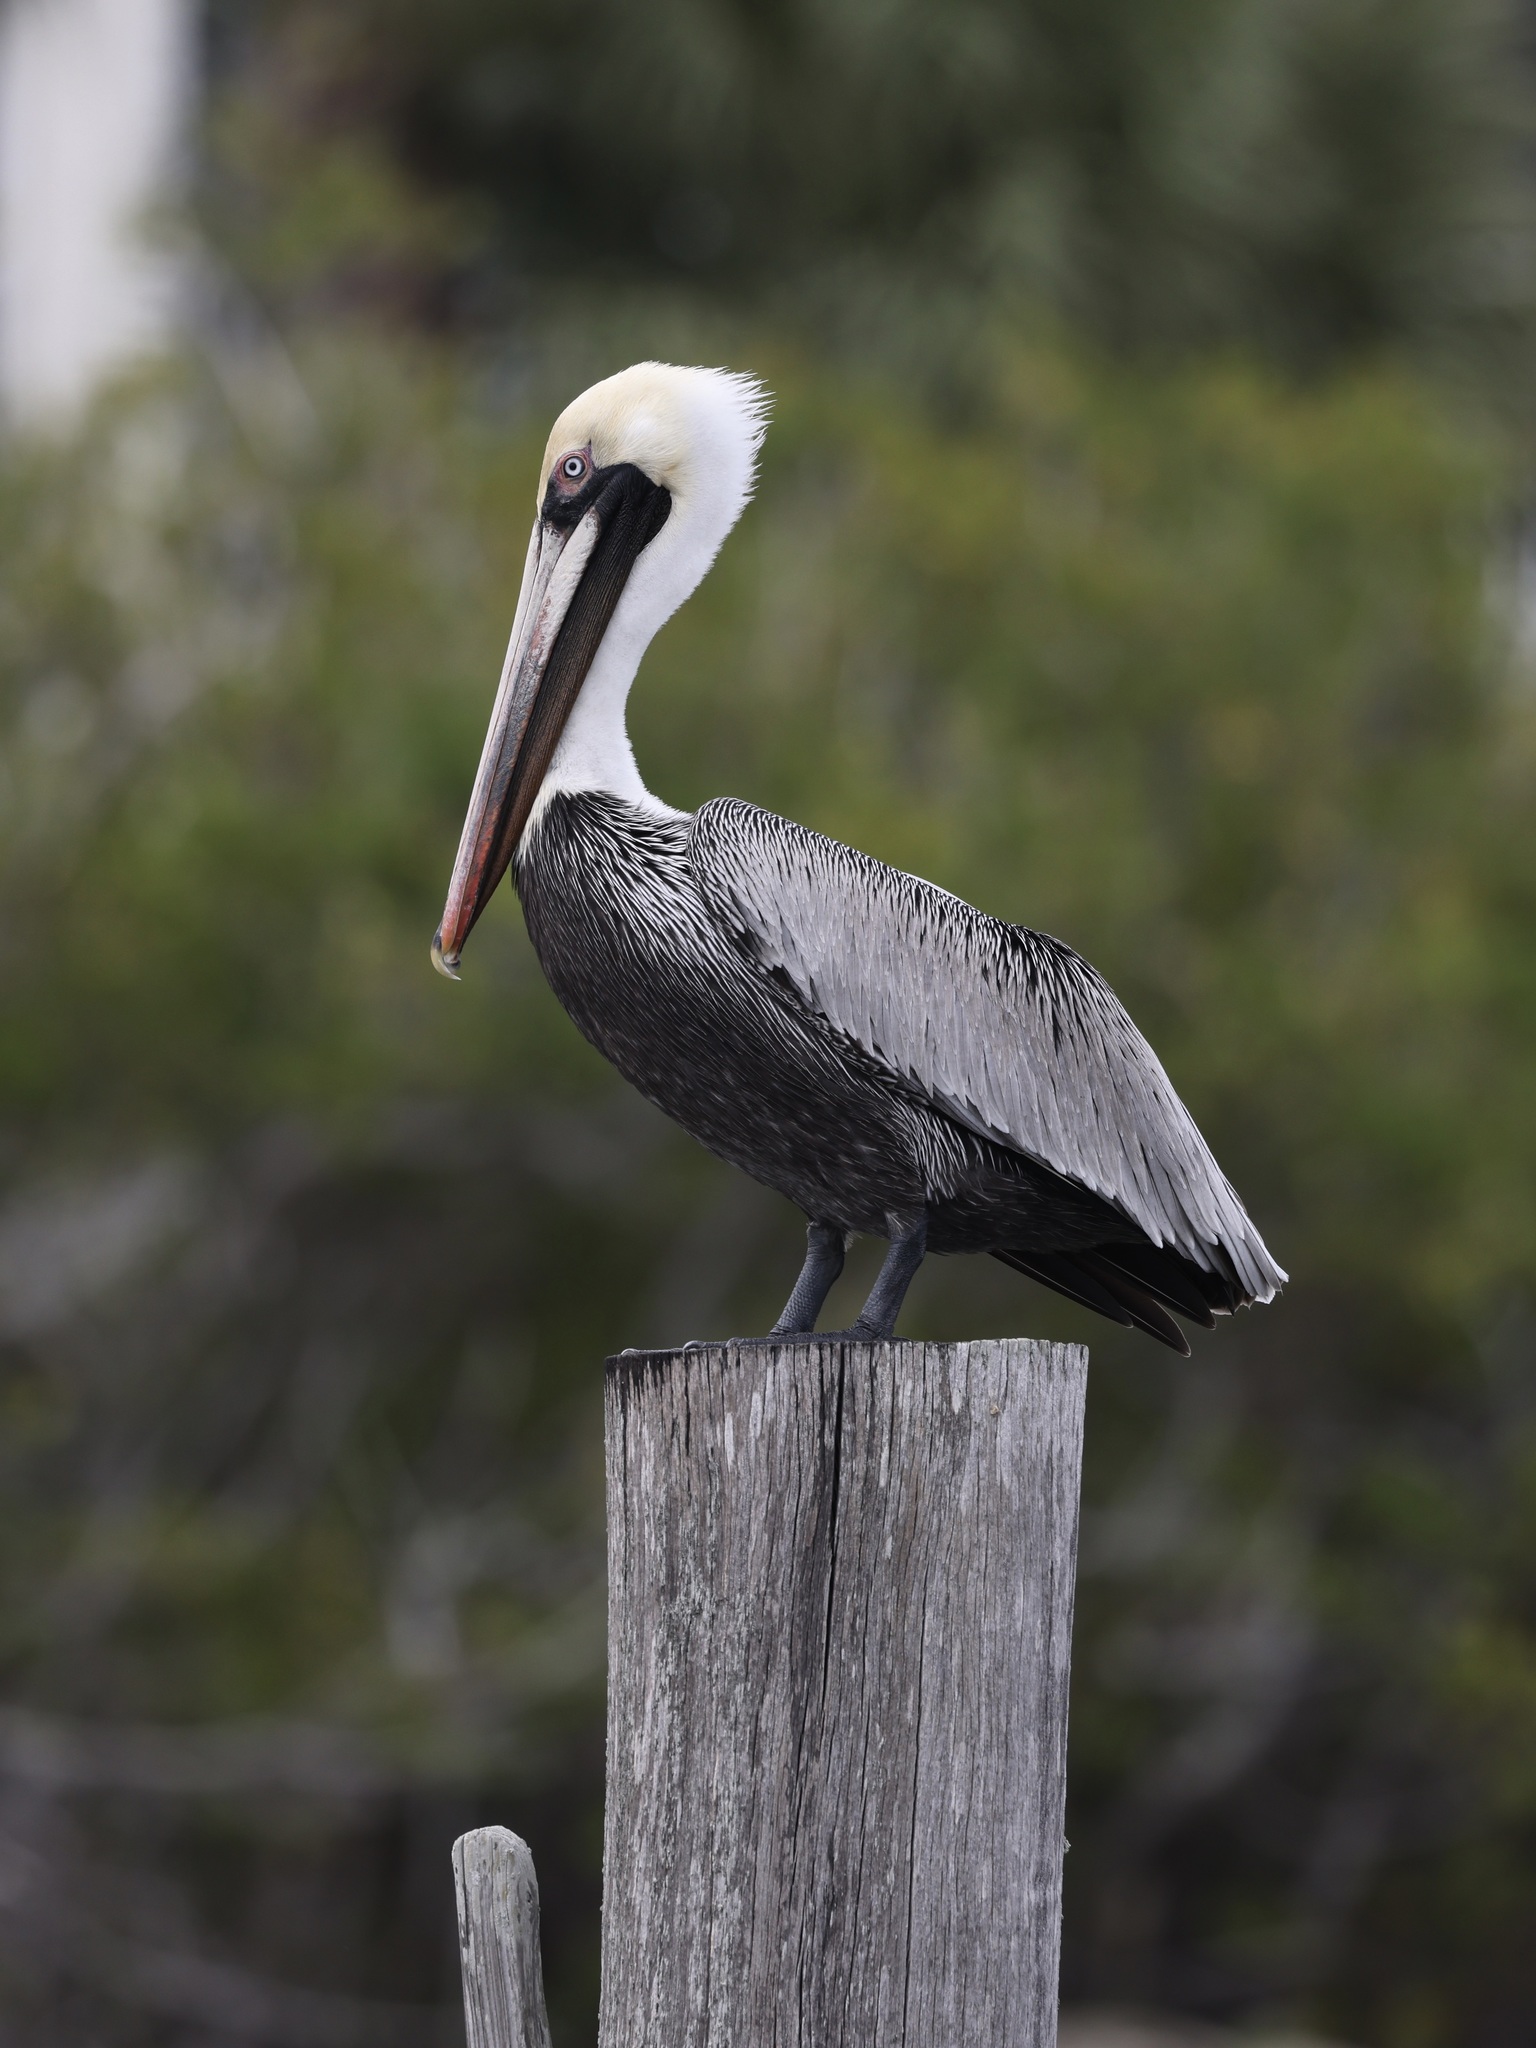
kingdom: Animalia
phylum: Chordata
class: Aves
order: Pelecaniformes
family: Pelecanidae
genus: Pelecanus
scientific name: Pelecanus occidentalis
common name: Brown pelican
